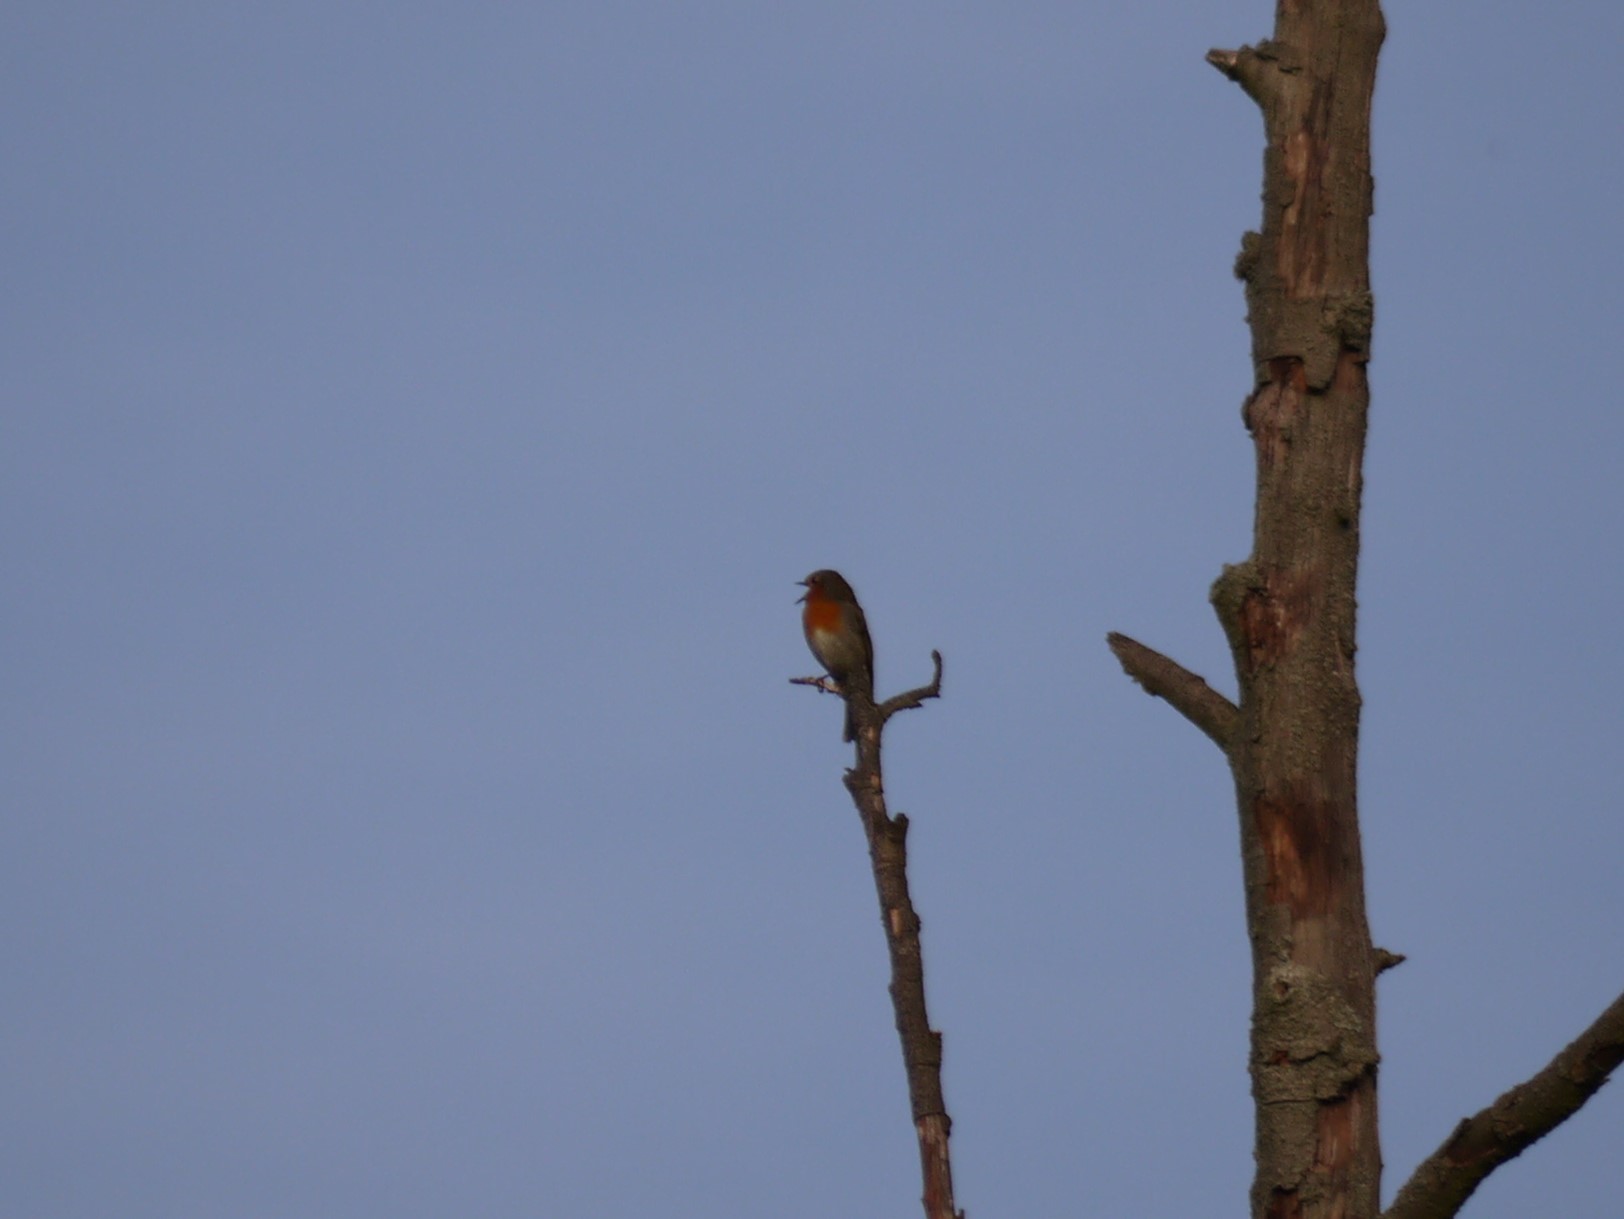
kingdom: Animalia
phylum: Chordata
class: Aves
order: Passeriformes
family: Muscicapidae
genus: Erithacus
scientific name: Erithacus rubecula
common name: European robin
